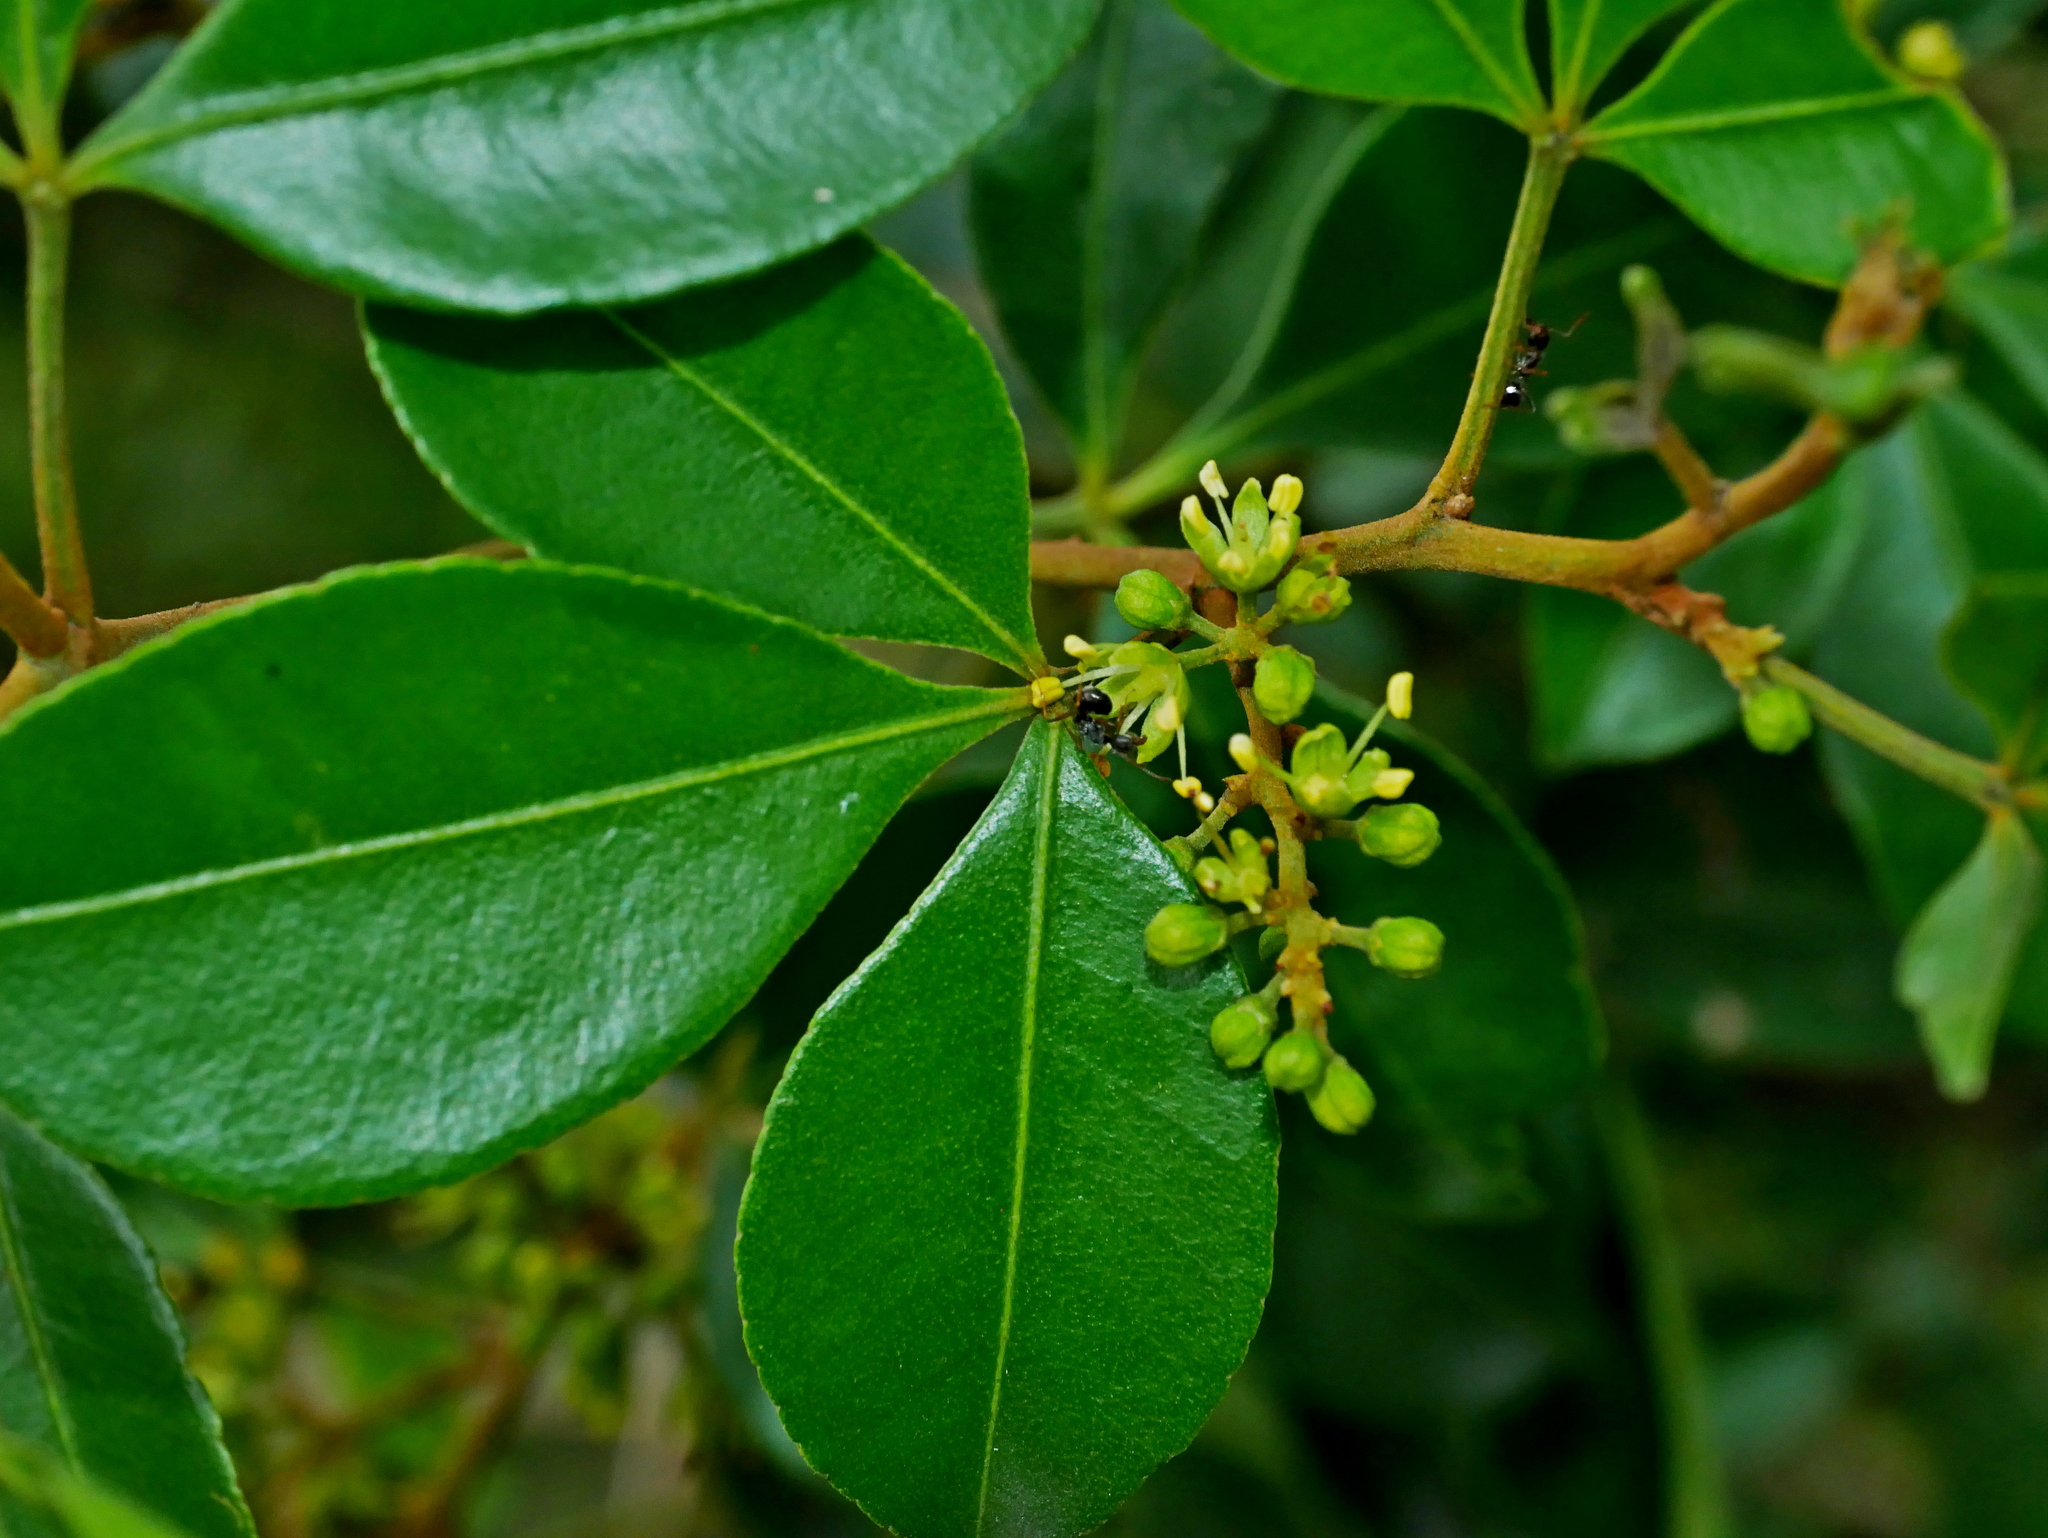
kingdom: Plantae
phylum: Tracheophyta
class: Magnoliopsida
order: Sapindales
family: Rutaceae
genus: Zanthoxylum
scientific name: Zanthoxylum asiaticum
